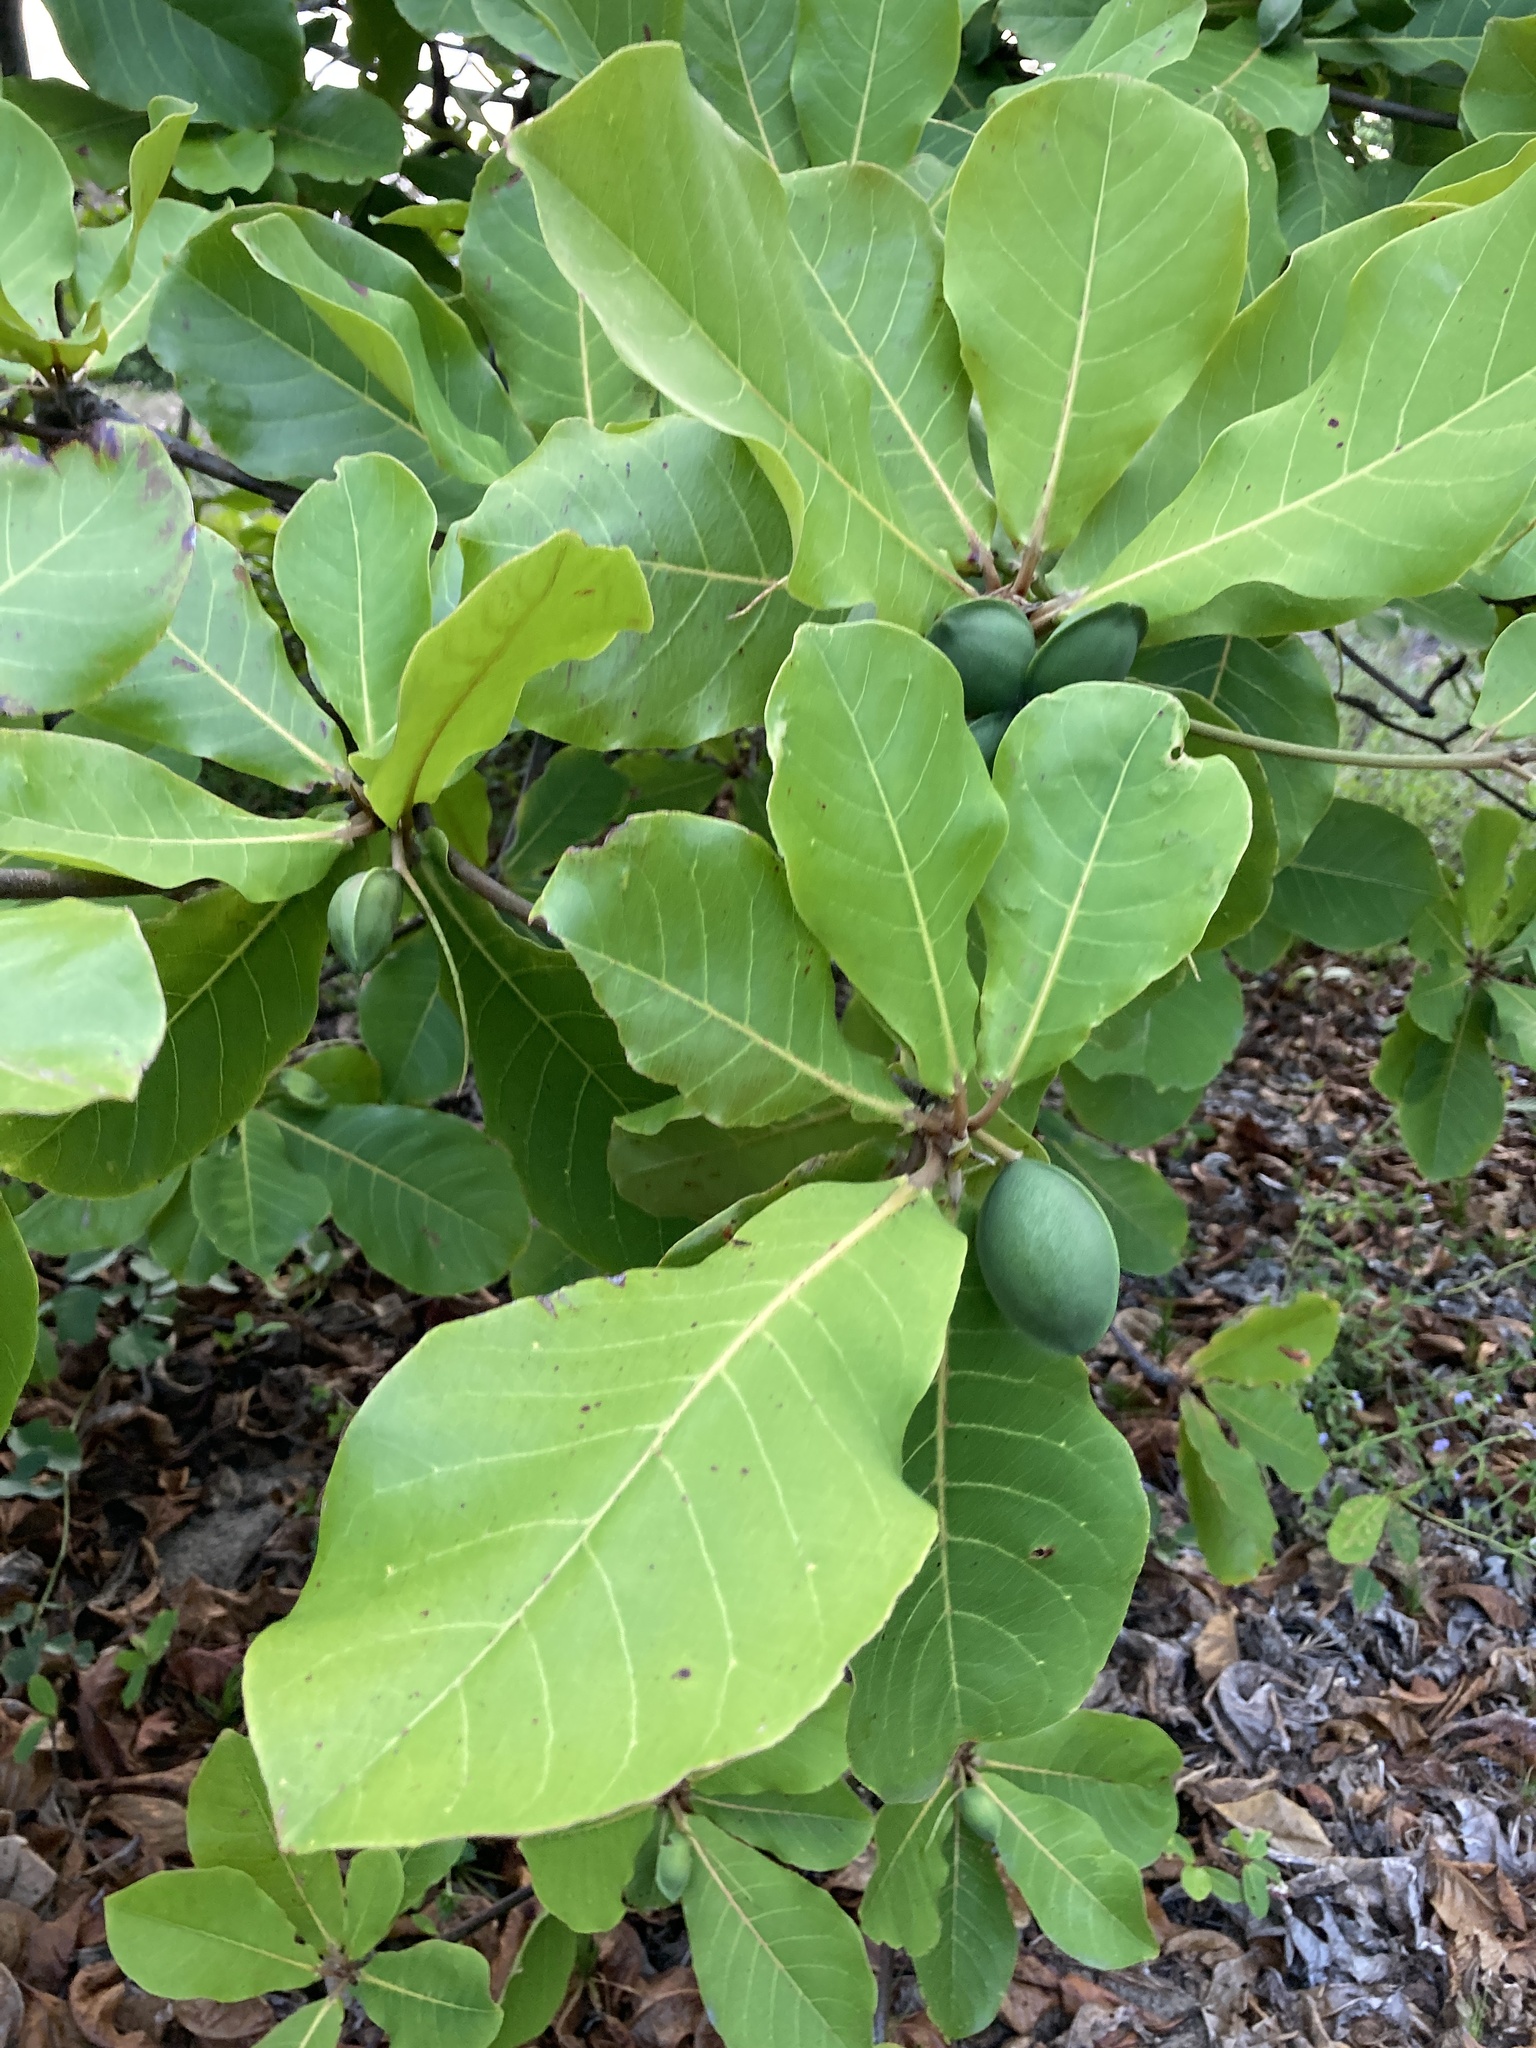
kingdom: Plantae
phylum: Tracheophyta
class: Magnoliopsida
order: Myrtales
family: Combretaceae
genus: Terminalia
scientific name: Terminalia catappa
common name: Tropical almond
